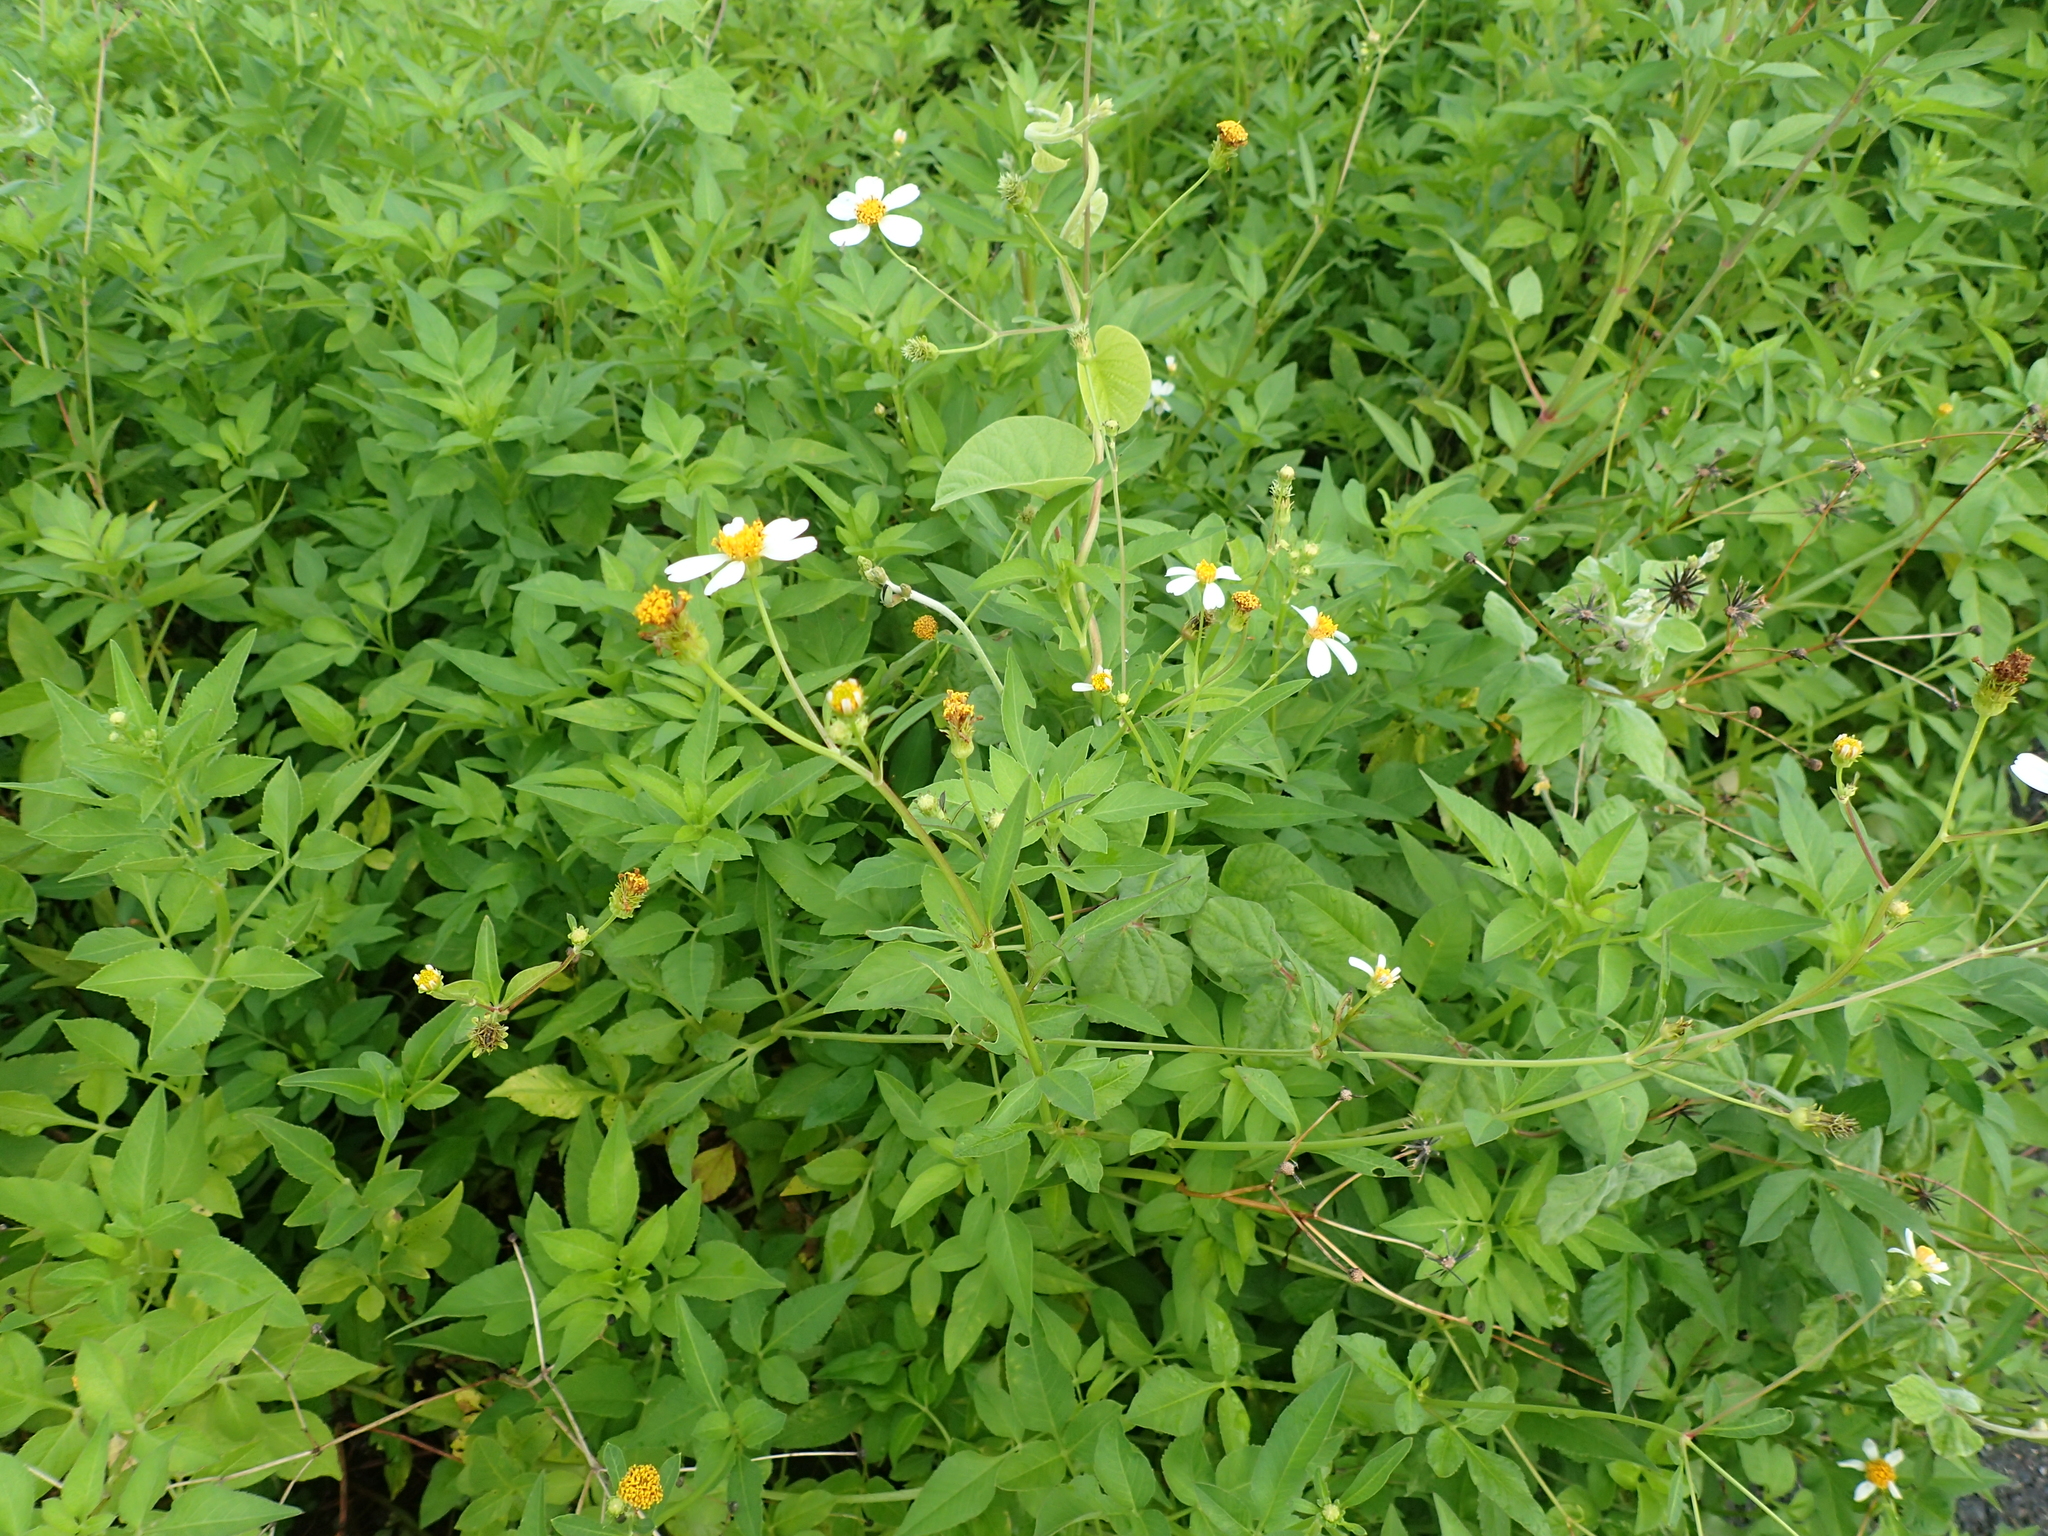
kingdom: Plantae
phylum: Tracheophyta
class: Magnoliopsida
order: Asterales
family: Asteraceae
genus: Bidens
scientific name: Bidens alba
